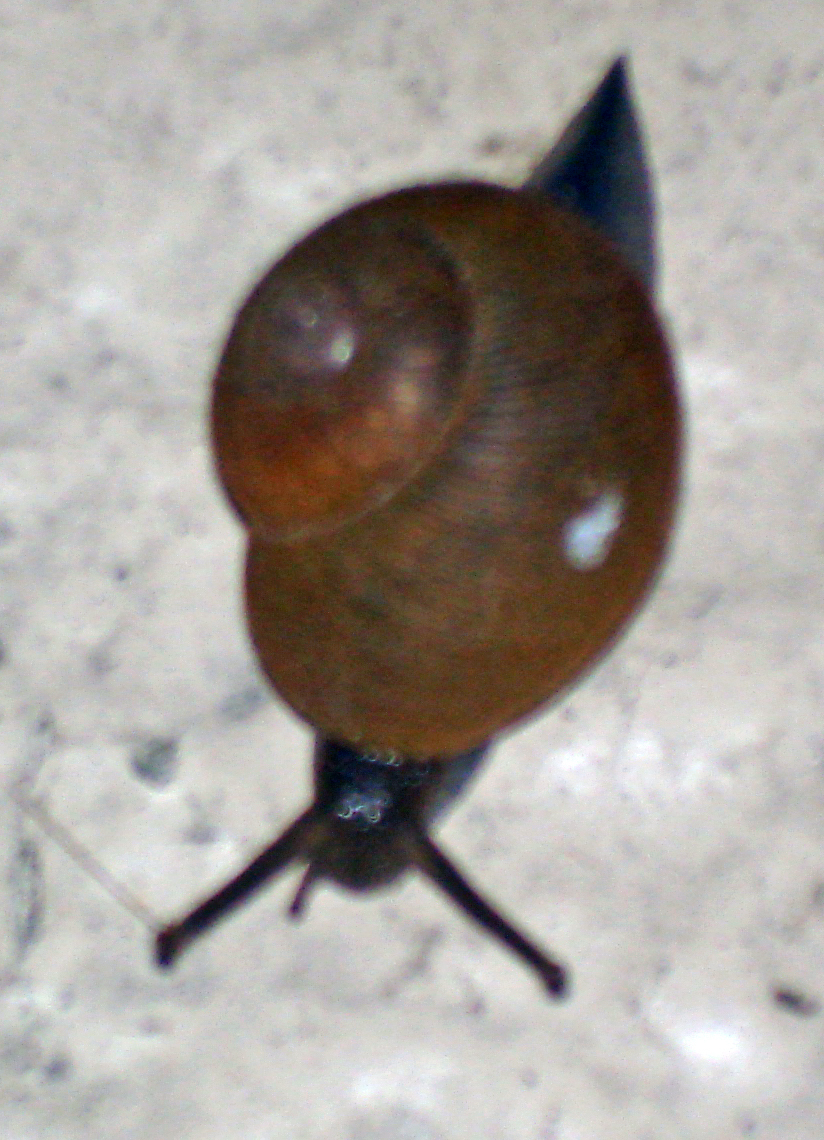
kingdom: Animalia
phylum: Mollusca
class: Gastropoda
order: Stylommatophora
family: Zachrysiidae
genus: Zachrysia
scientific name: Zachrysia provisoria
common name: Garden zachrysia
